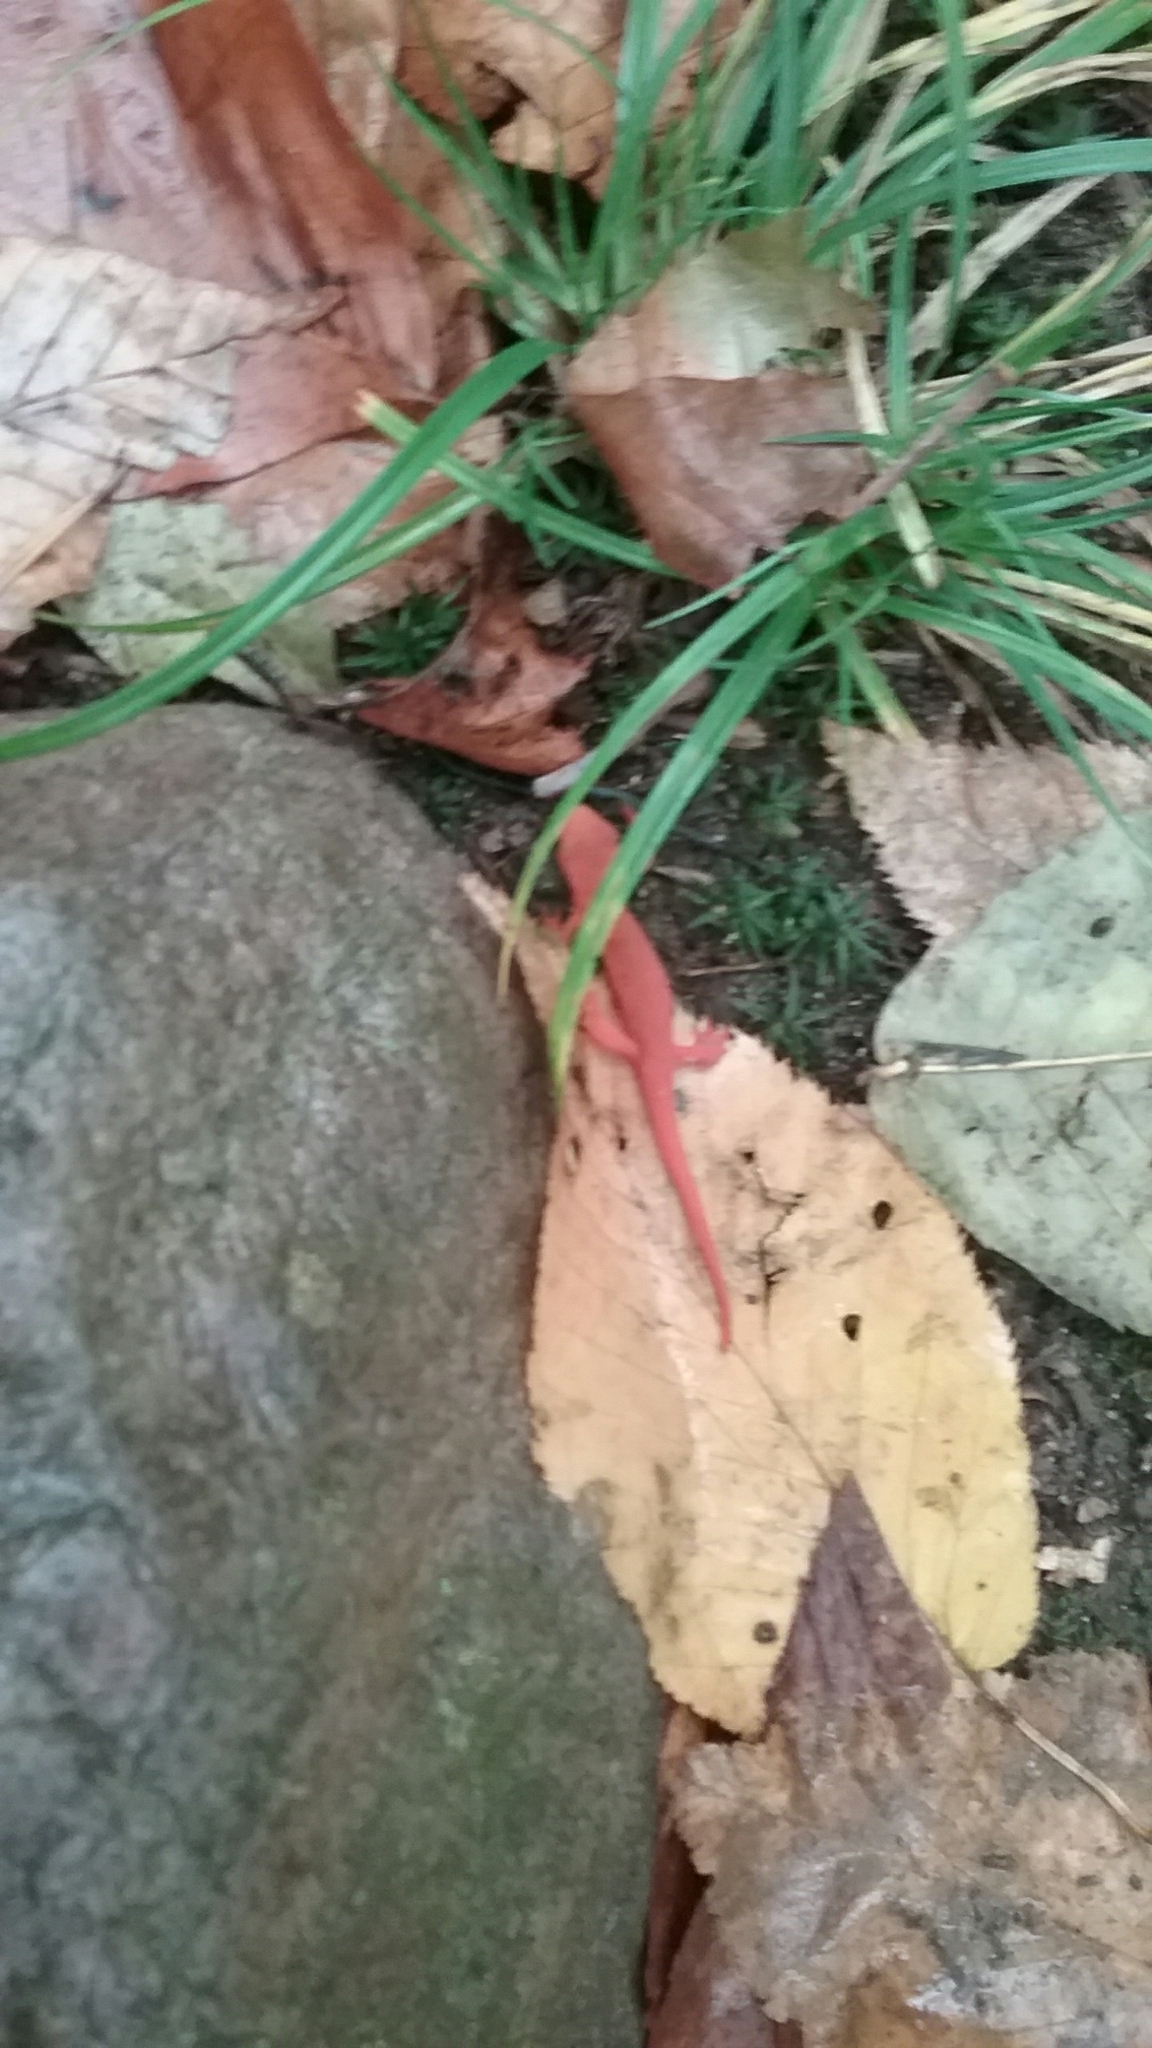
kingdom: Animalia
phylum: Chordata
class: Amphibia
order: Caudata
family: Salamandridae
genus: Notophthalmus
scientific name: Notophthalmus viridescens
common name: Eastern newt
